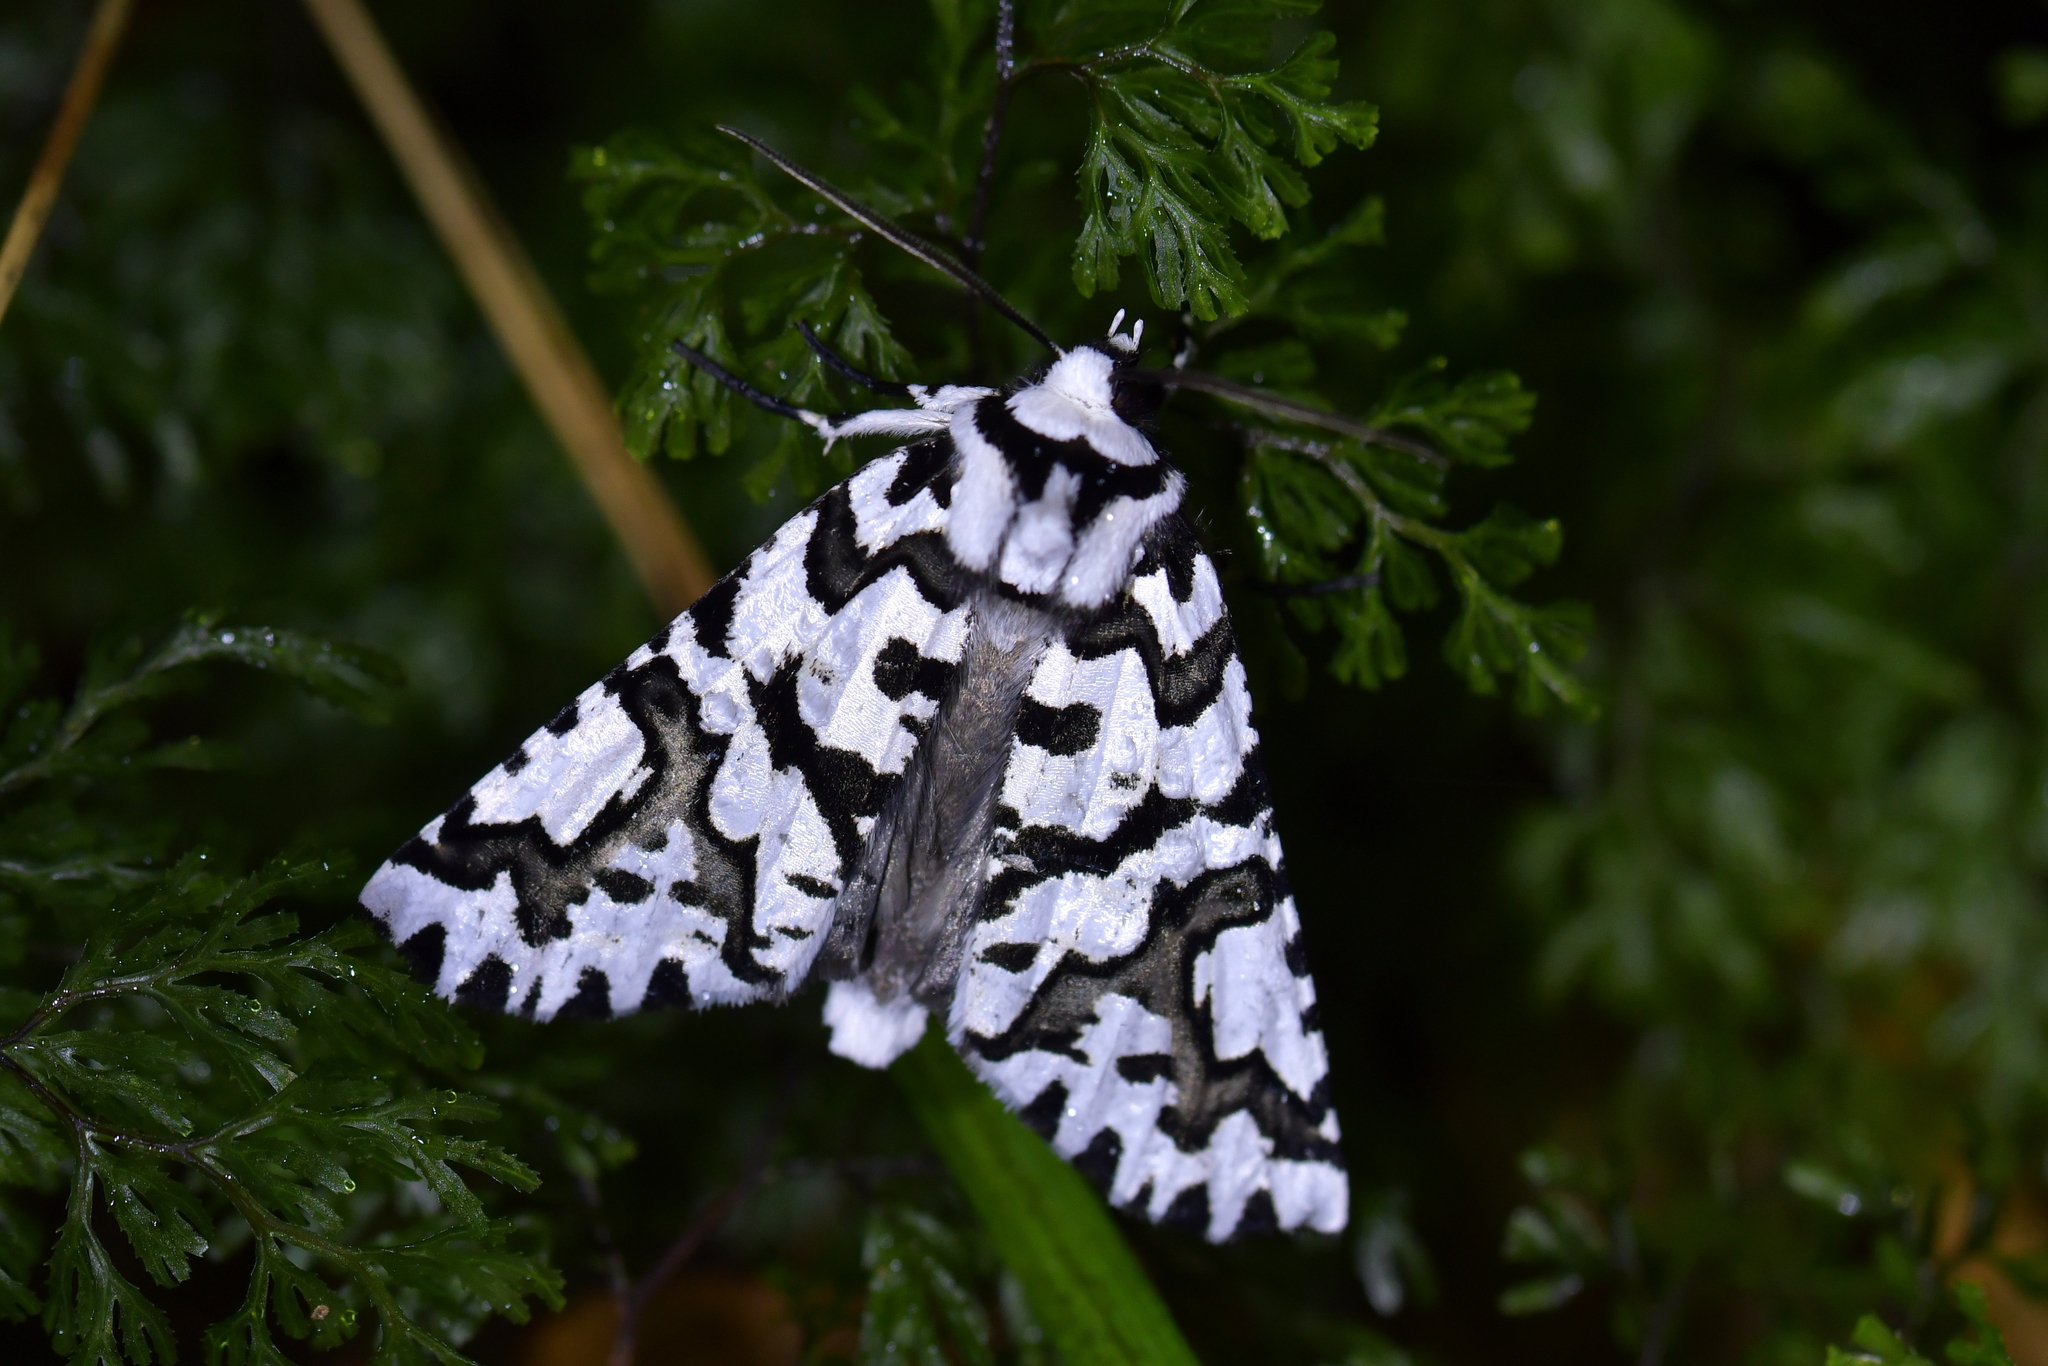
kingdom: Animalia
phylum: Arthropoda
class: Insecta
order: Lepidoptera
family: Geometridae
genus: Declana
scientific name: Declana
